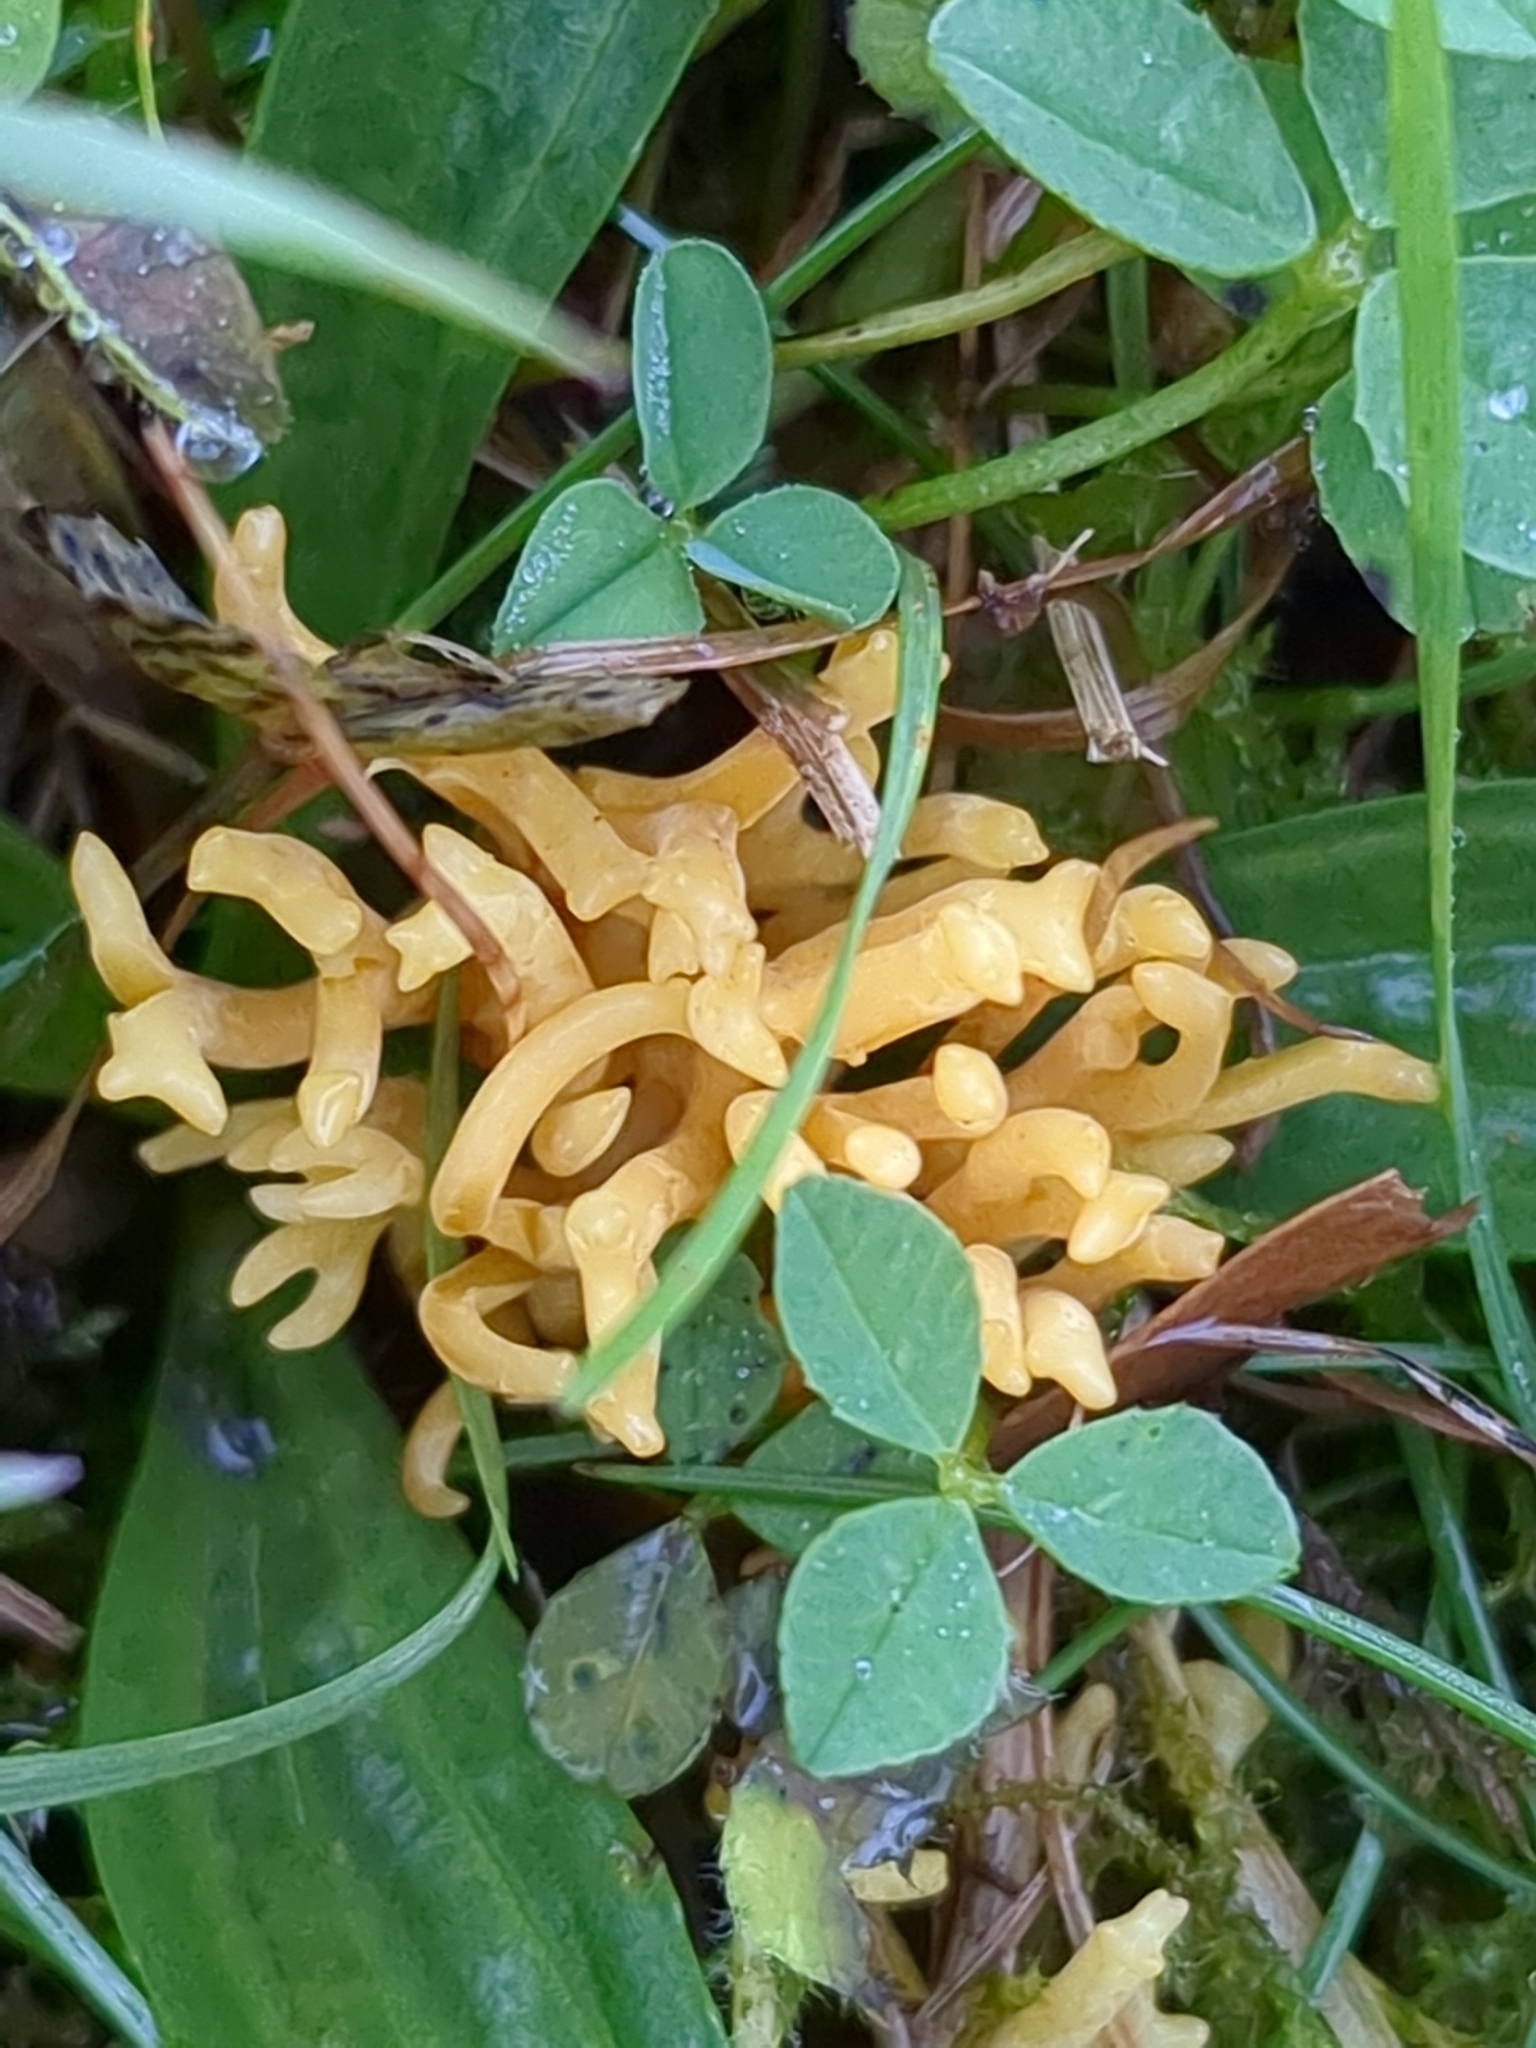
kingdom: Fungi
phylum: Basidiomycota
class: Agaricomycetes
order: Agaricales
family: Clavariaceae
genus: Clavulinopsis
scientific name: Clavulinopsis corniculata
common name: Meadow coral
